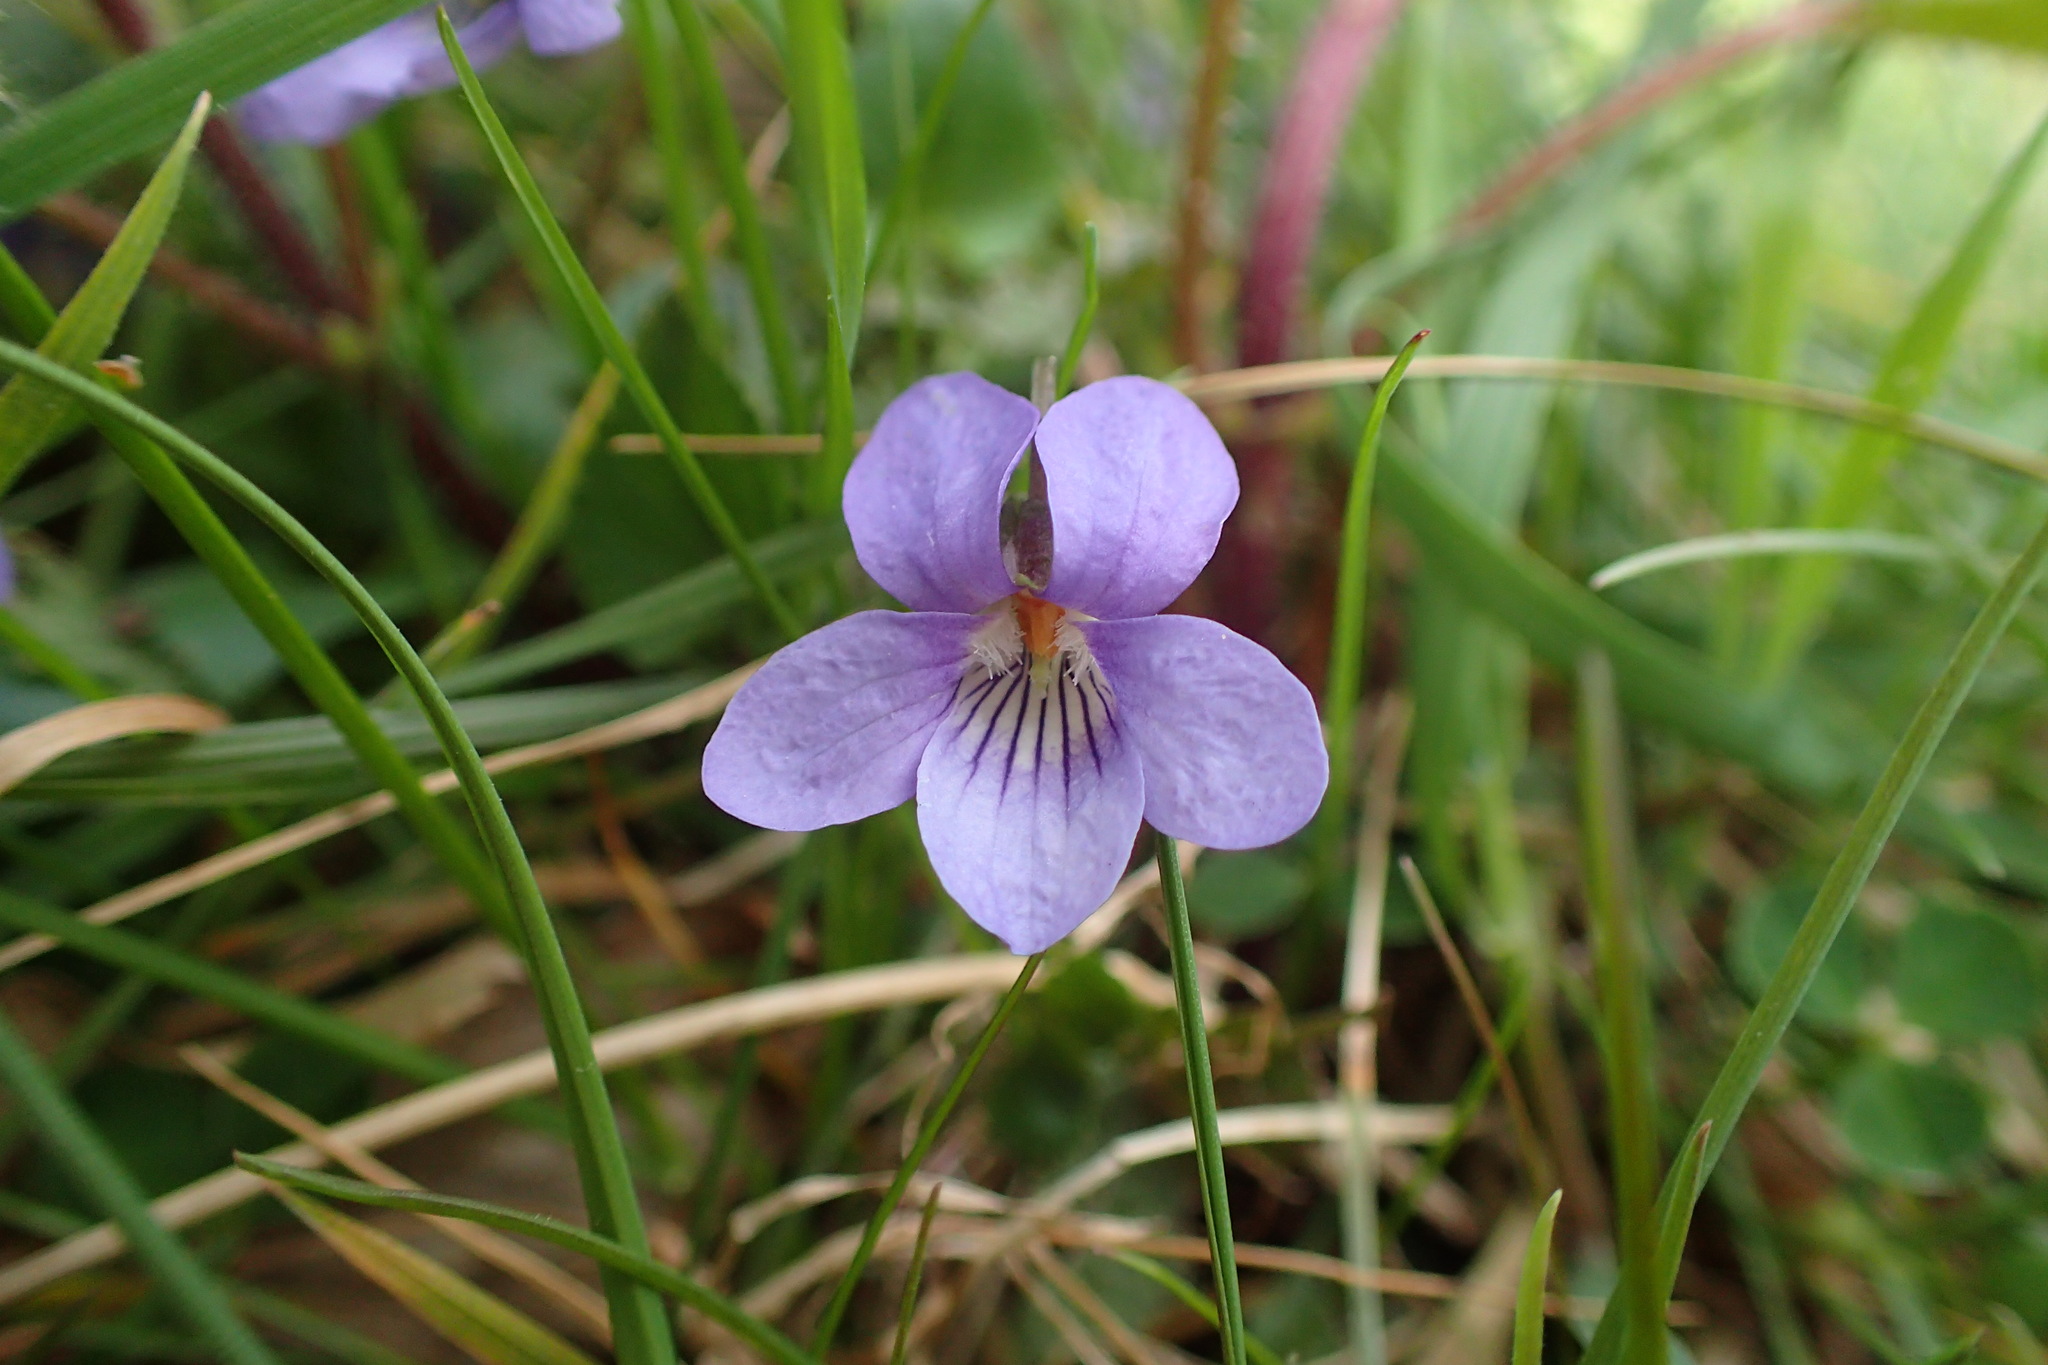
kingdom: Plantae
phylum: Tracheophyta
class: Magnoliopsida
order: Malpighiales
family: Violaceae
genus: Viola
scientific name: Viola riviniana
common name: Common dog-violet
